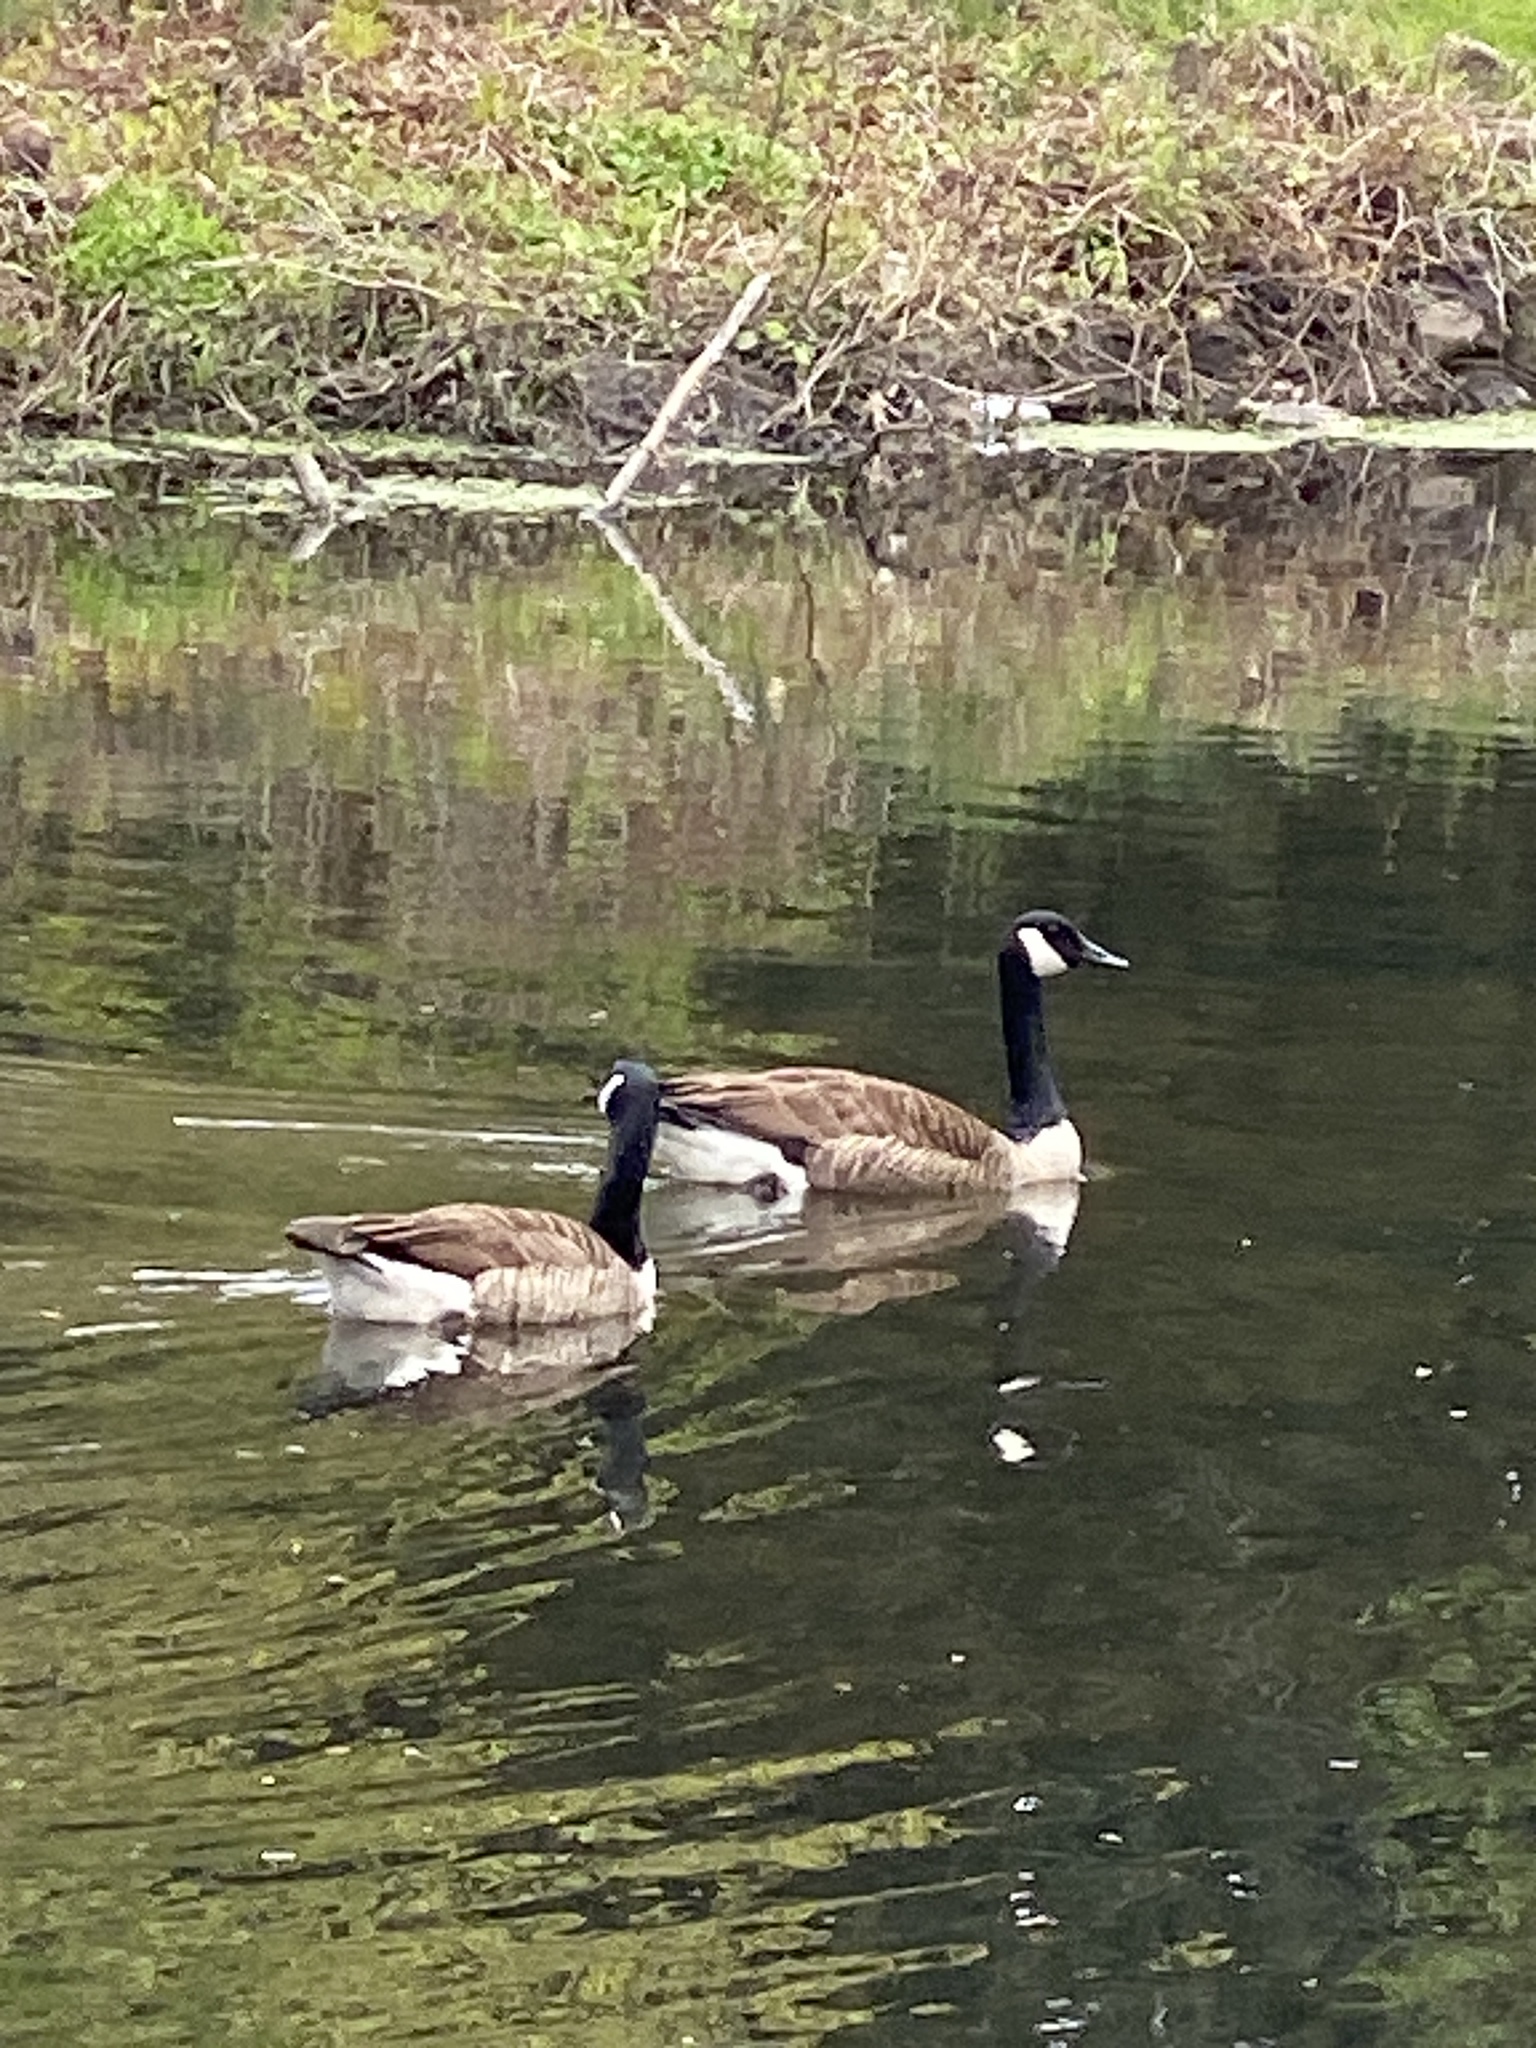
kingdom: Animalia
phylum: Chordata
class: Aves
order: Anseriformes
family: Anatidae
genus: Branta
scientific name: Branta canadensis
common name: Canada goose
